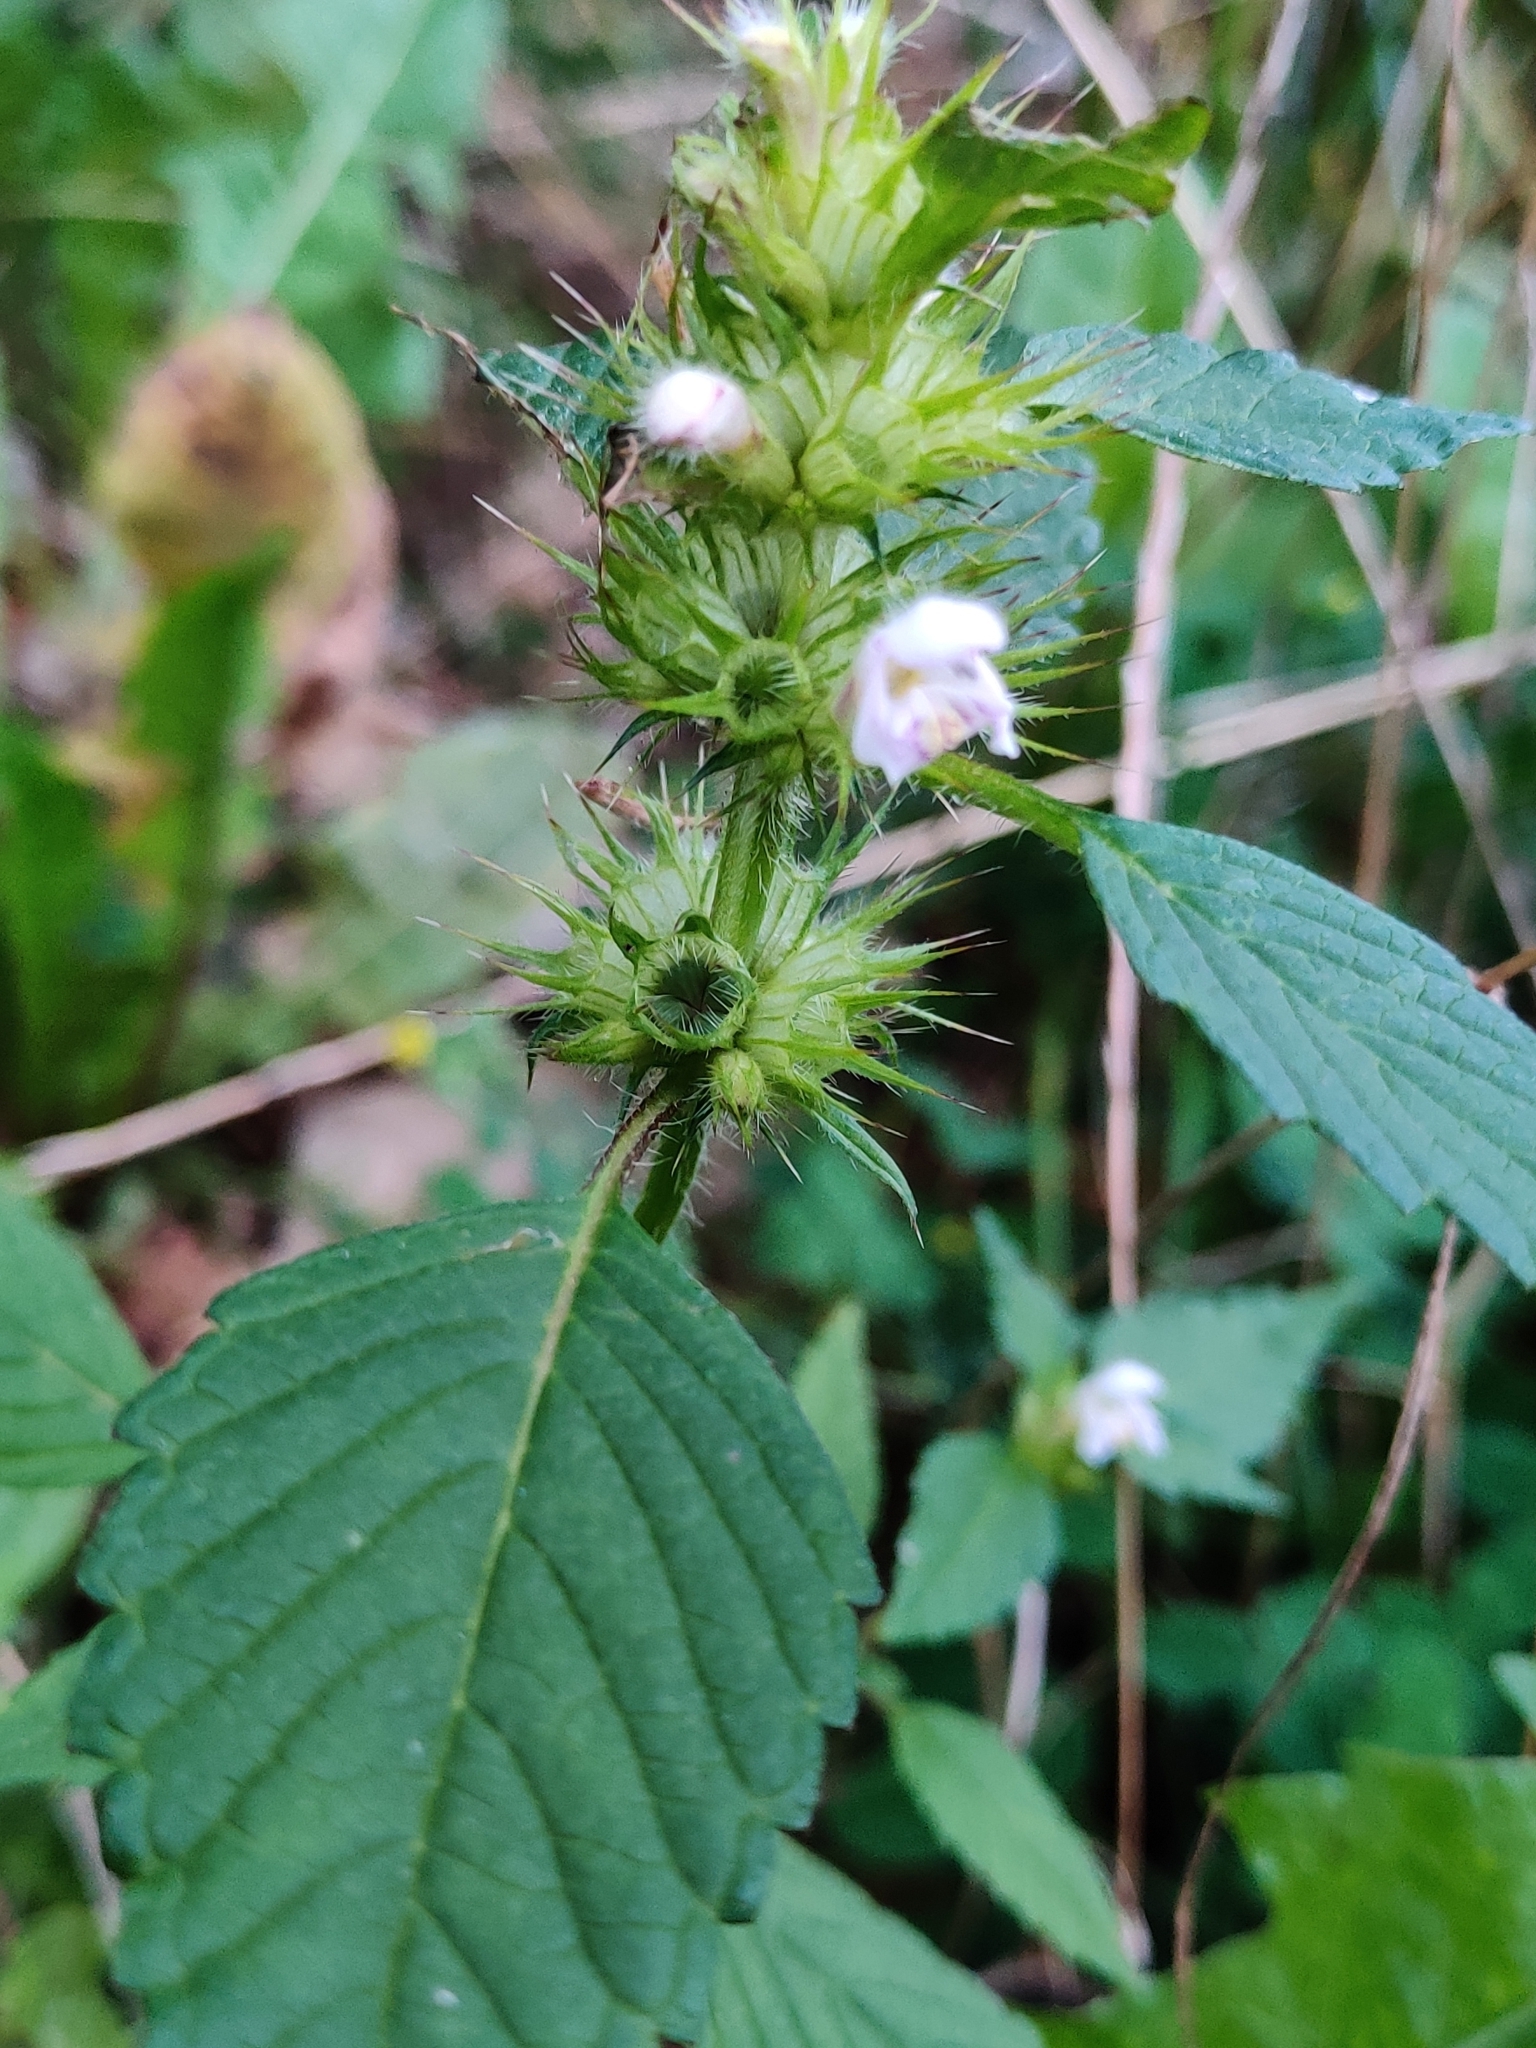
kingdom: Plantae
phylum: Tracheophyta
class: Magnoliopsida
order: Lamiales
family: Lamiaceae
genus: Galeopsis
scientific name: Galeopsis tetrahit
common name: Common hemp-nettle
